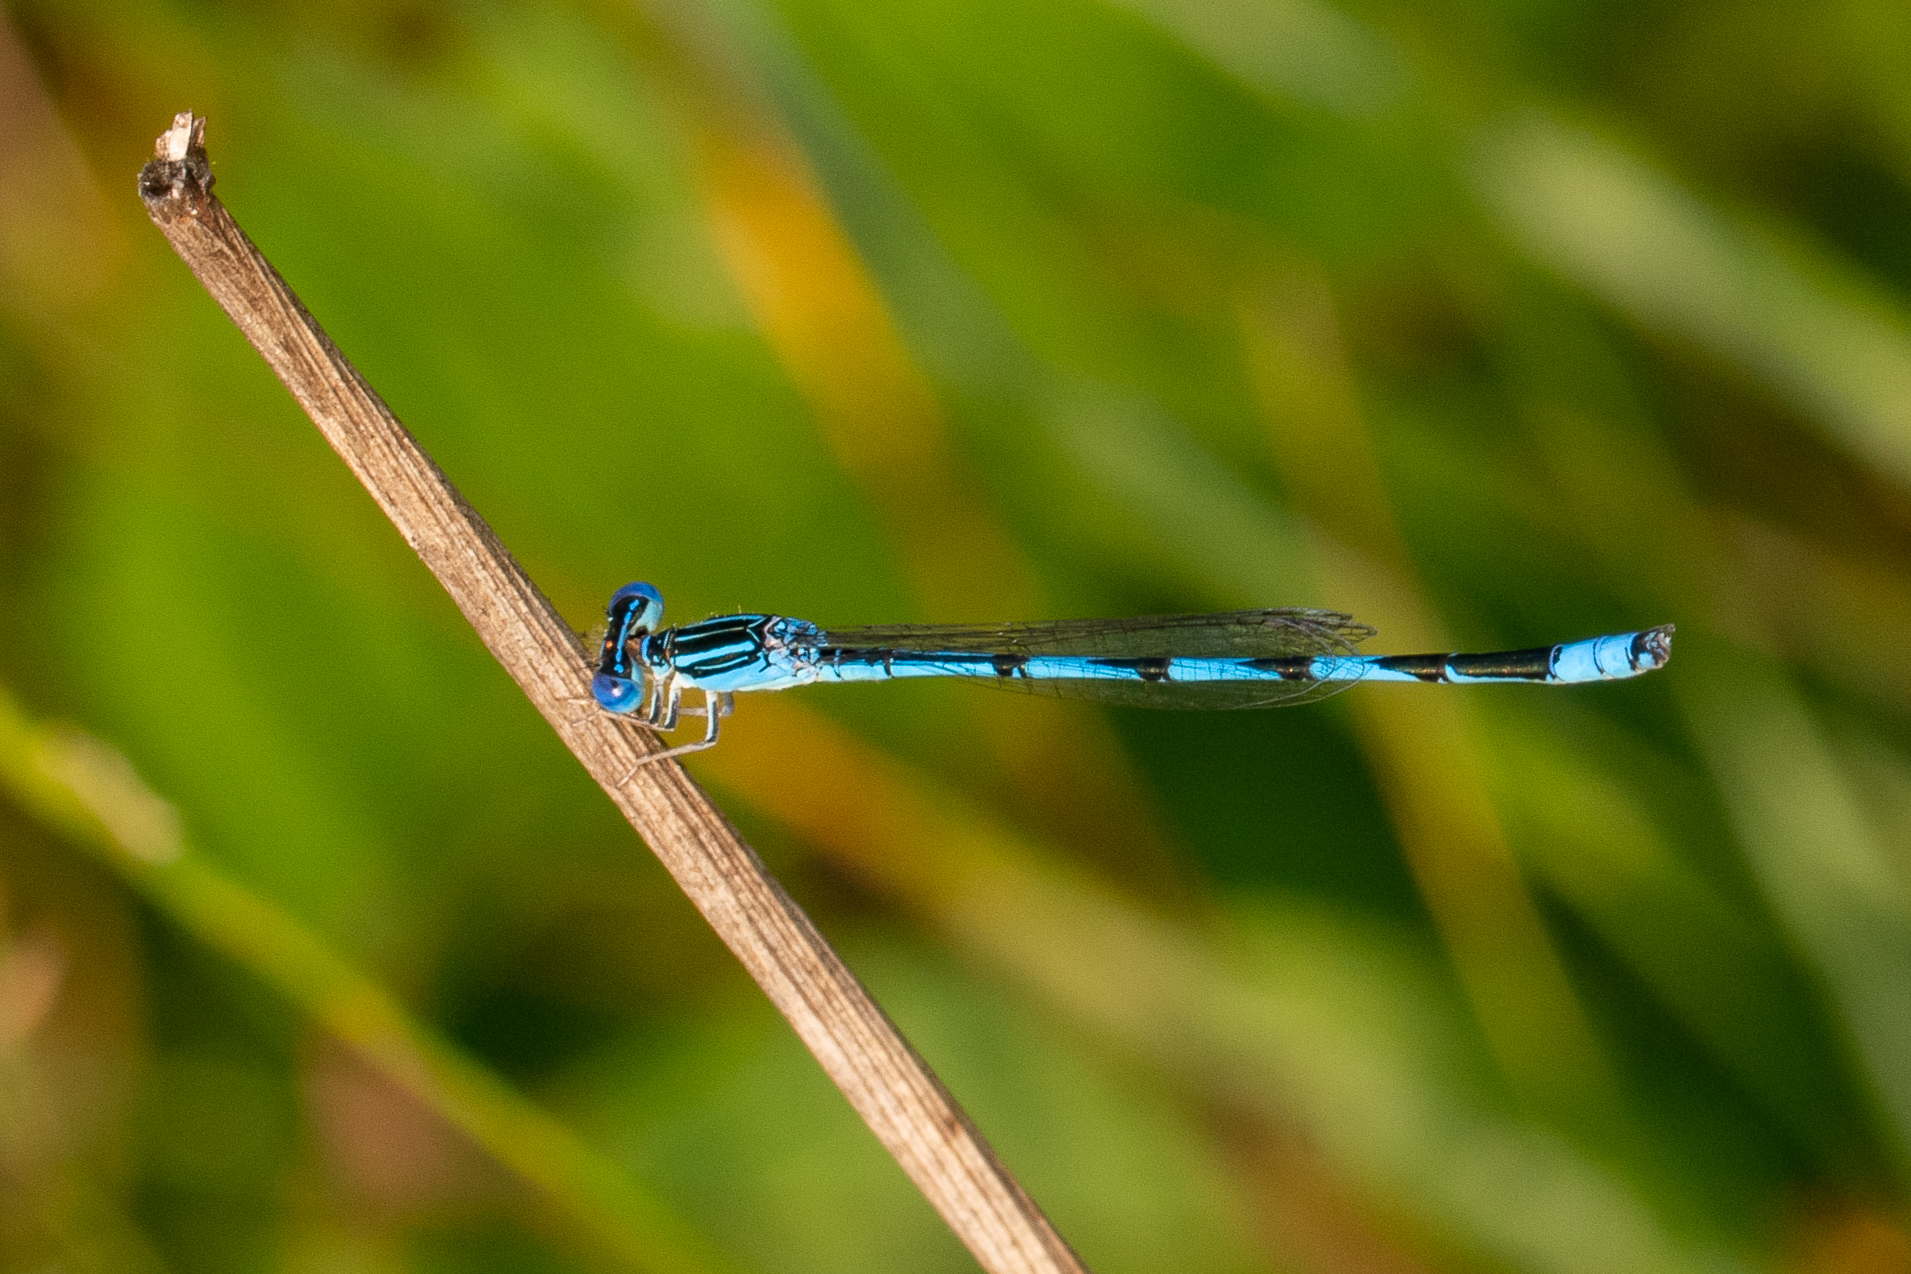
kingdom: Animalia
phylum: Arthropoda
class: Insecta
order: Odonata
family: Coenagrionidae
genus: Enallagma
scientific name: Enallagma basidens
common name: Double-striped bluet
